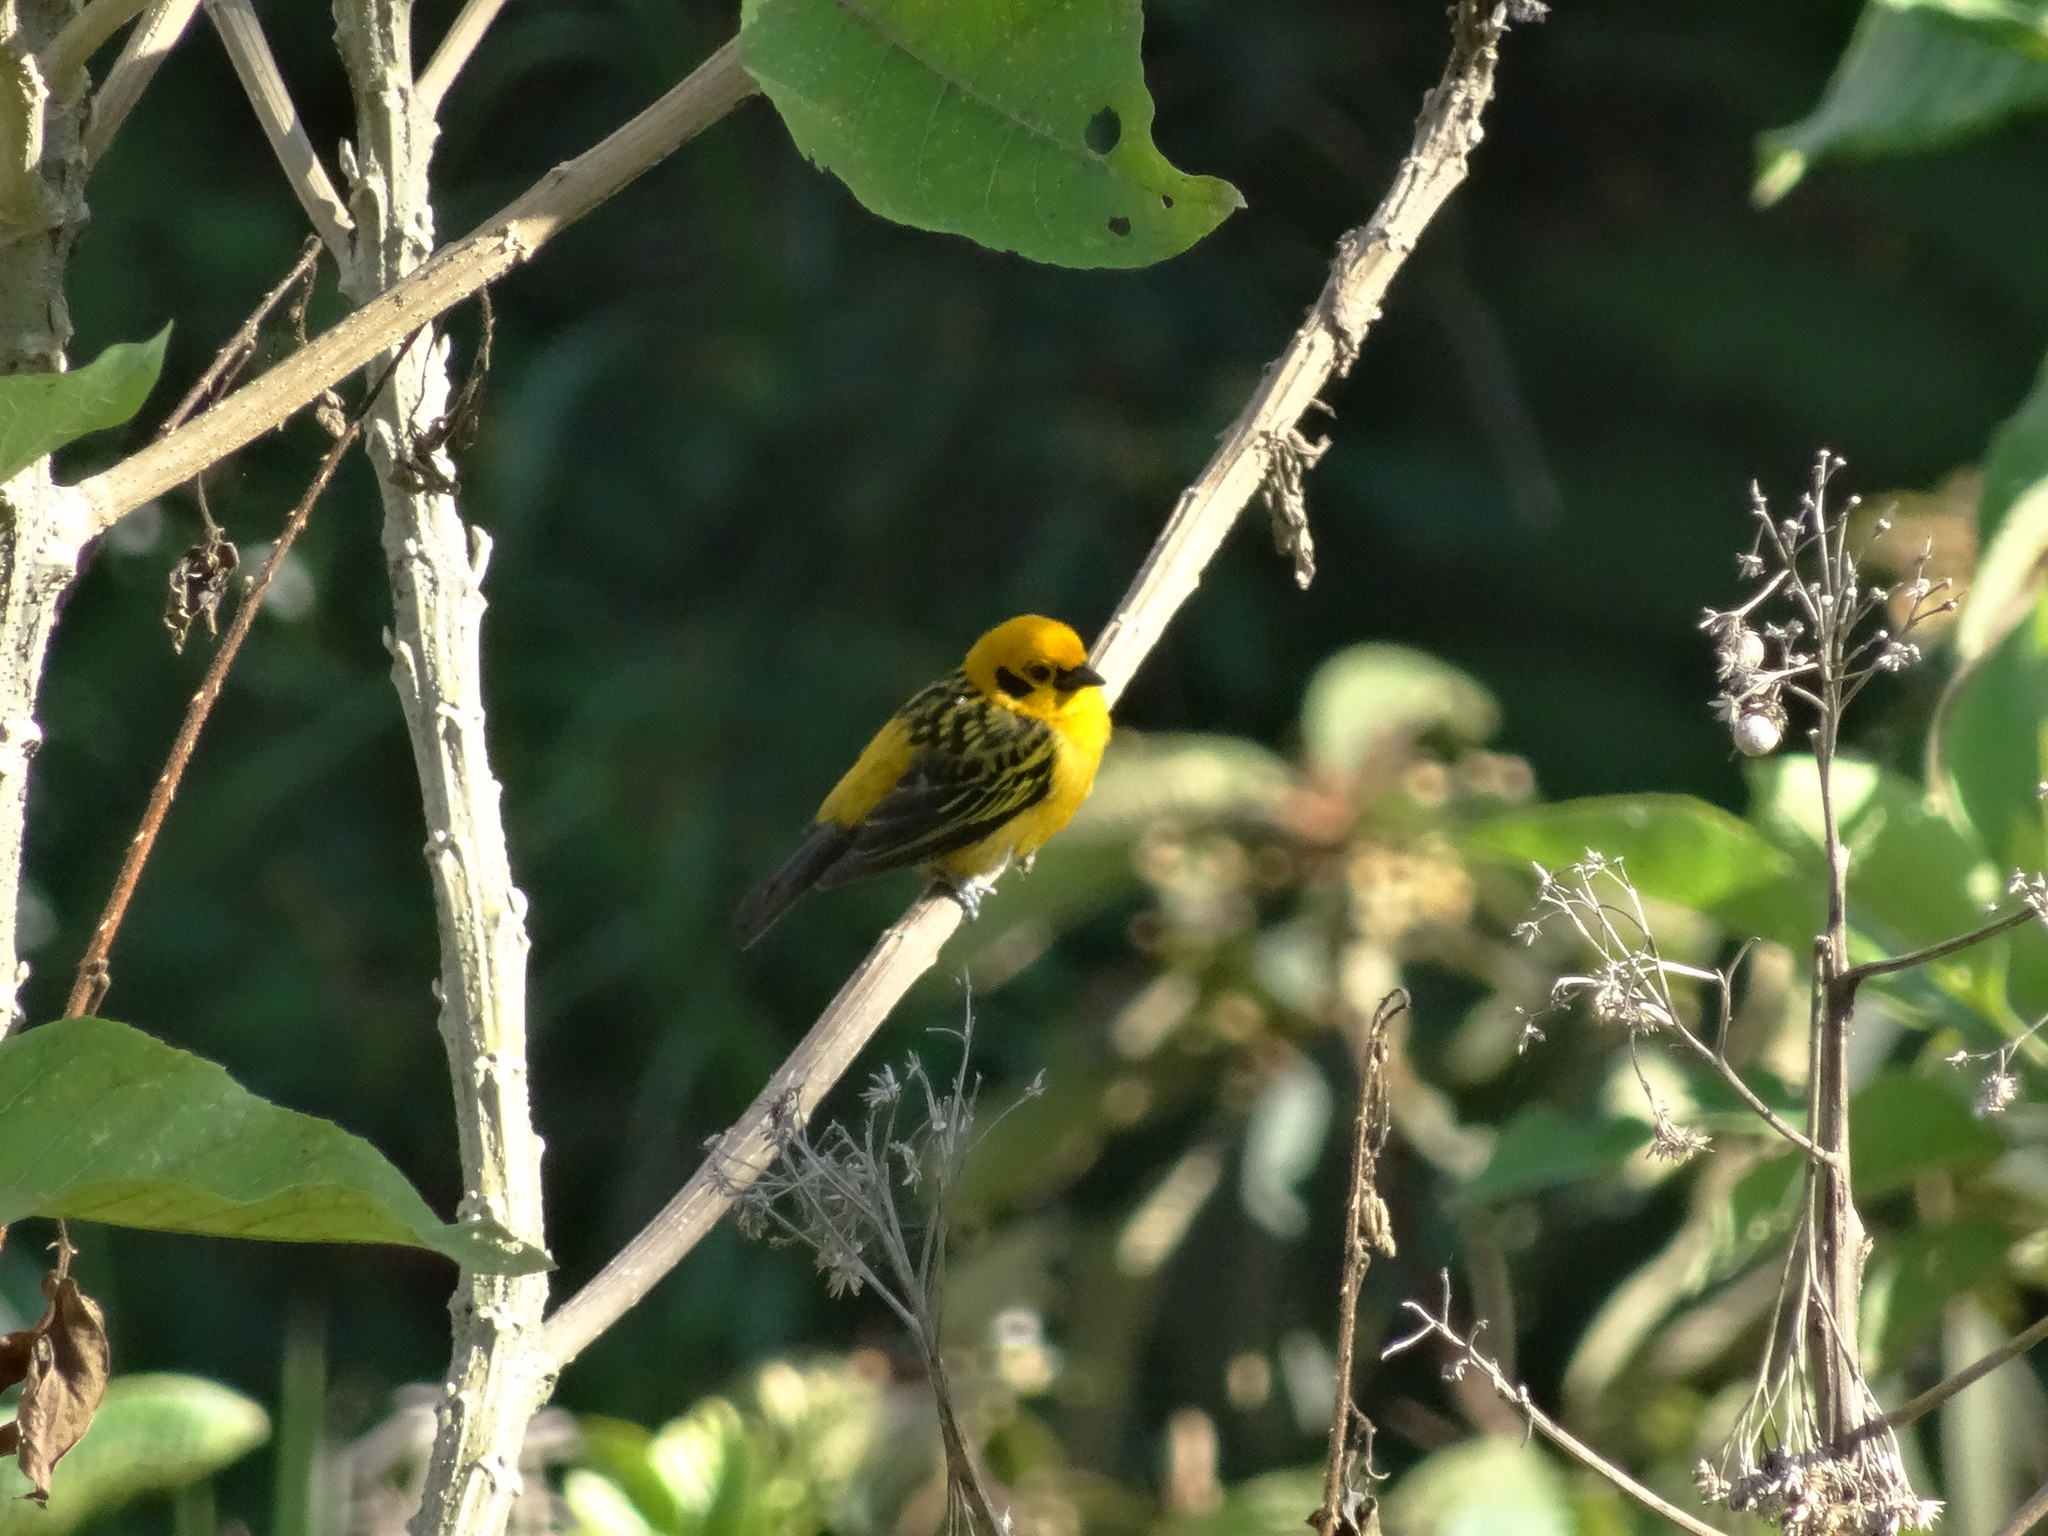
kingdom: Animalia
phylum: Chordata
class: Aves
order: Passeriformes
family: Thraupidae
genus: Tangara
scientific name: Tangara arthus
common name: Golden tanager
